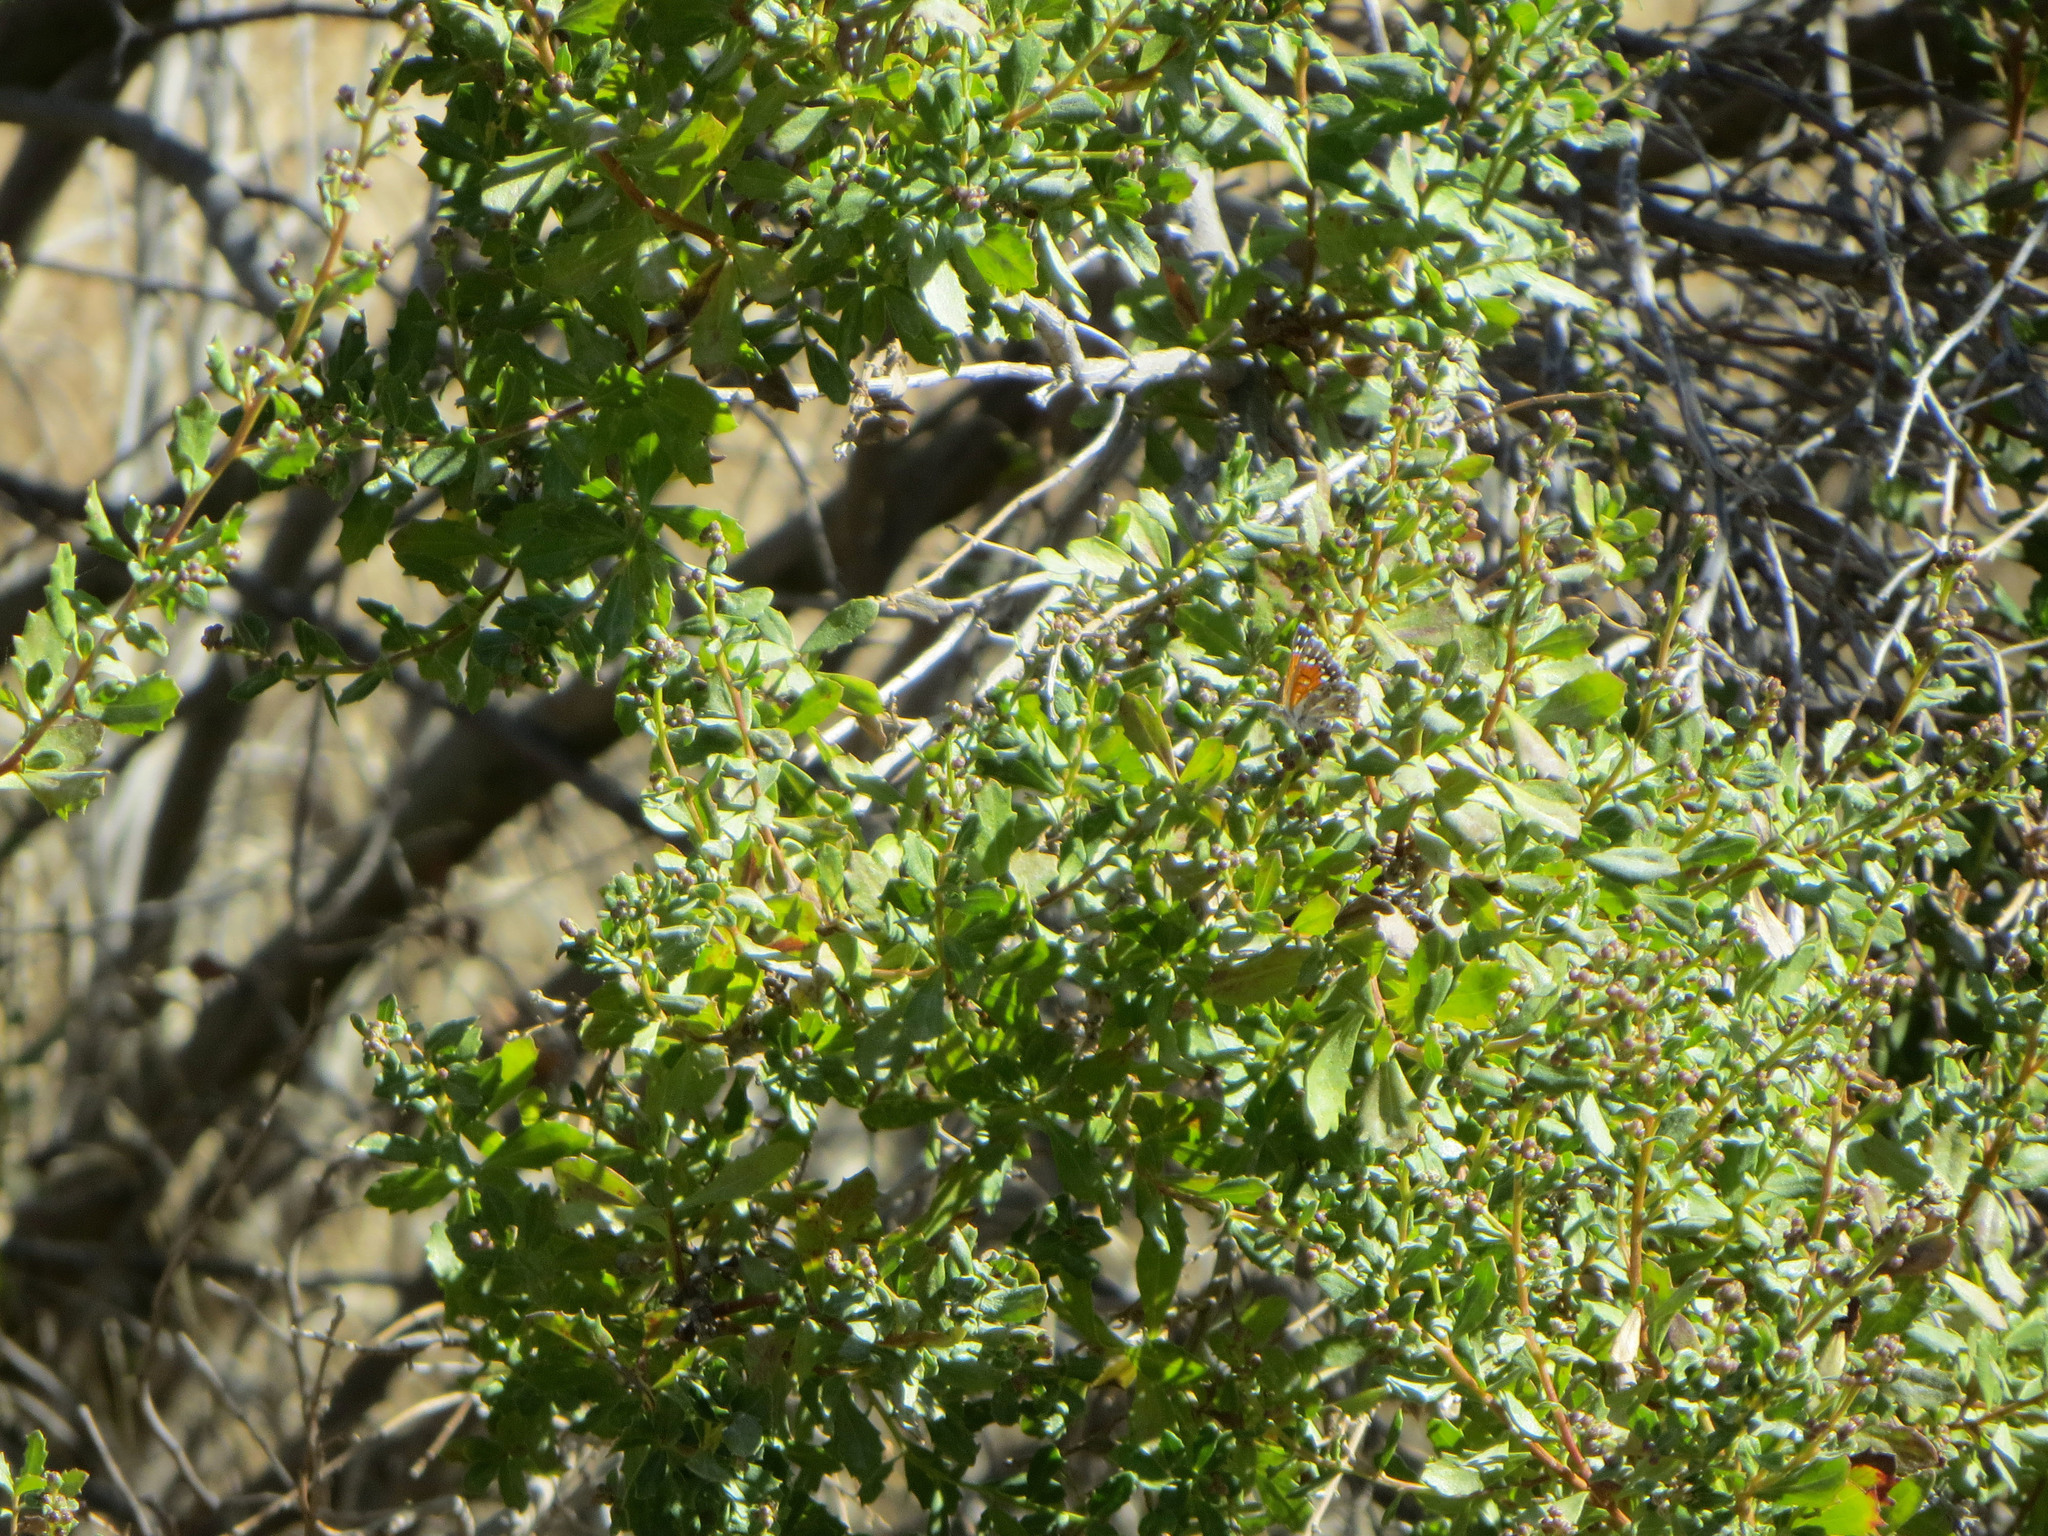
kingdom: Animalia
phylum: Arthropoda
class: Insecta
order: Lepidoptera
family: Riodinidae
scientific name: Riodinidae
